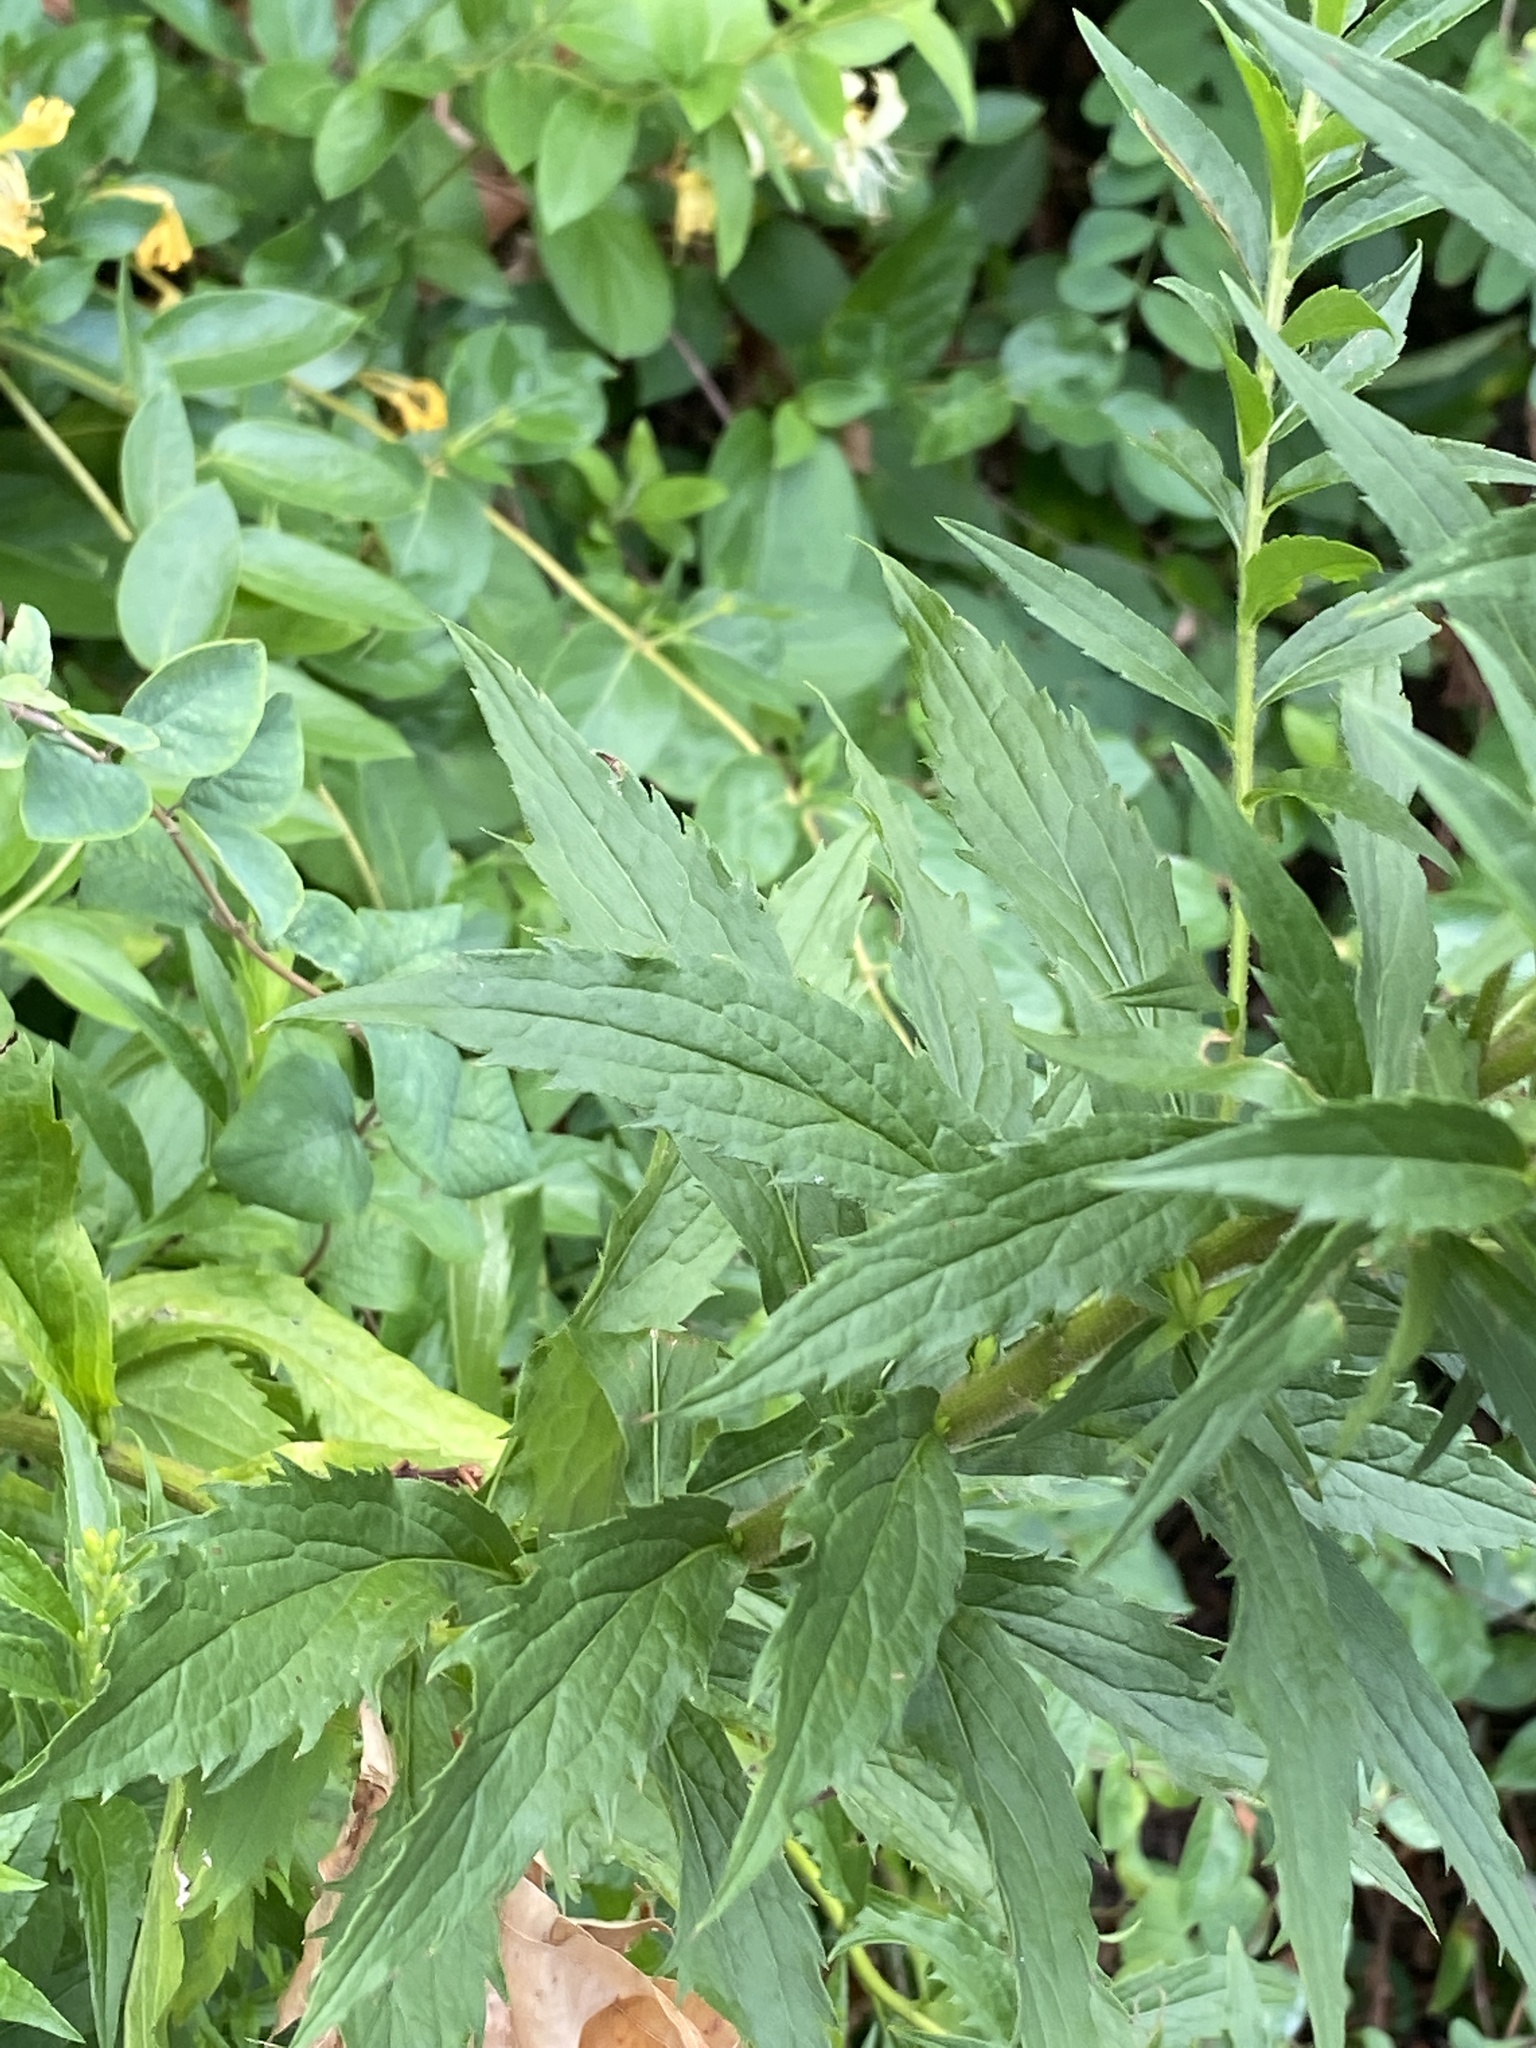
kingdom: Plantae
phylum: Tracheophyta
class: Magnoliopsida
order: Asterales
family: Asteraceae
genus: Solidago
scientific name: Solidago rugosa
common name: Rough-stemmed goldenrod
